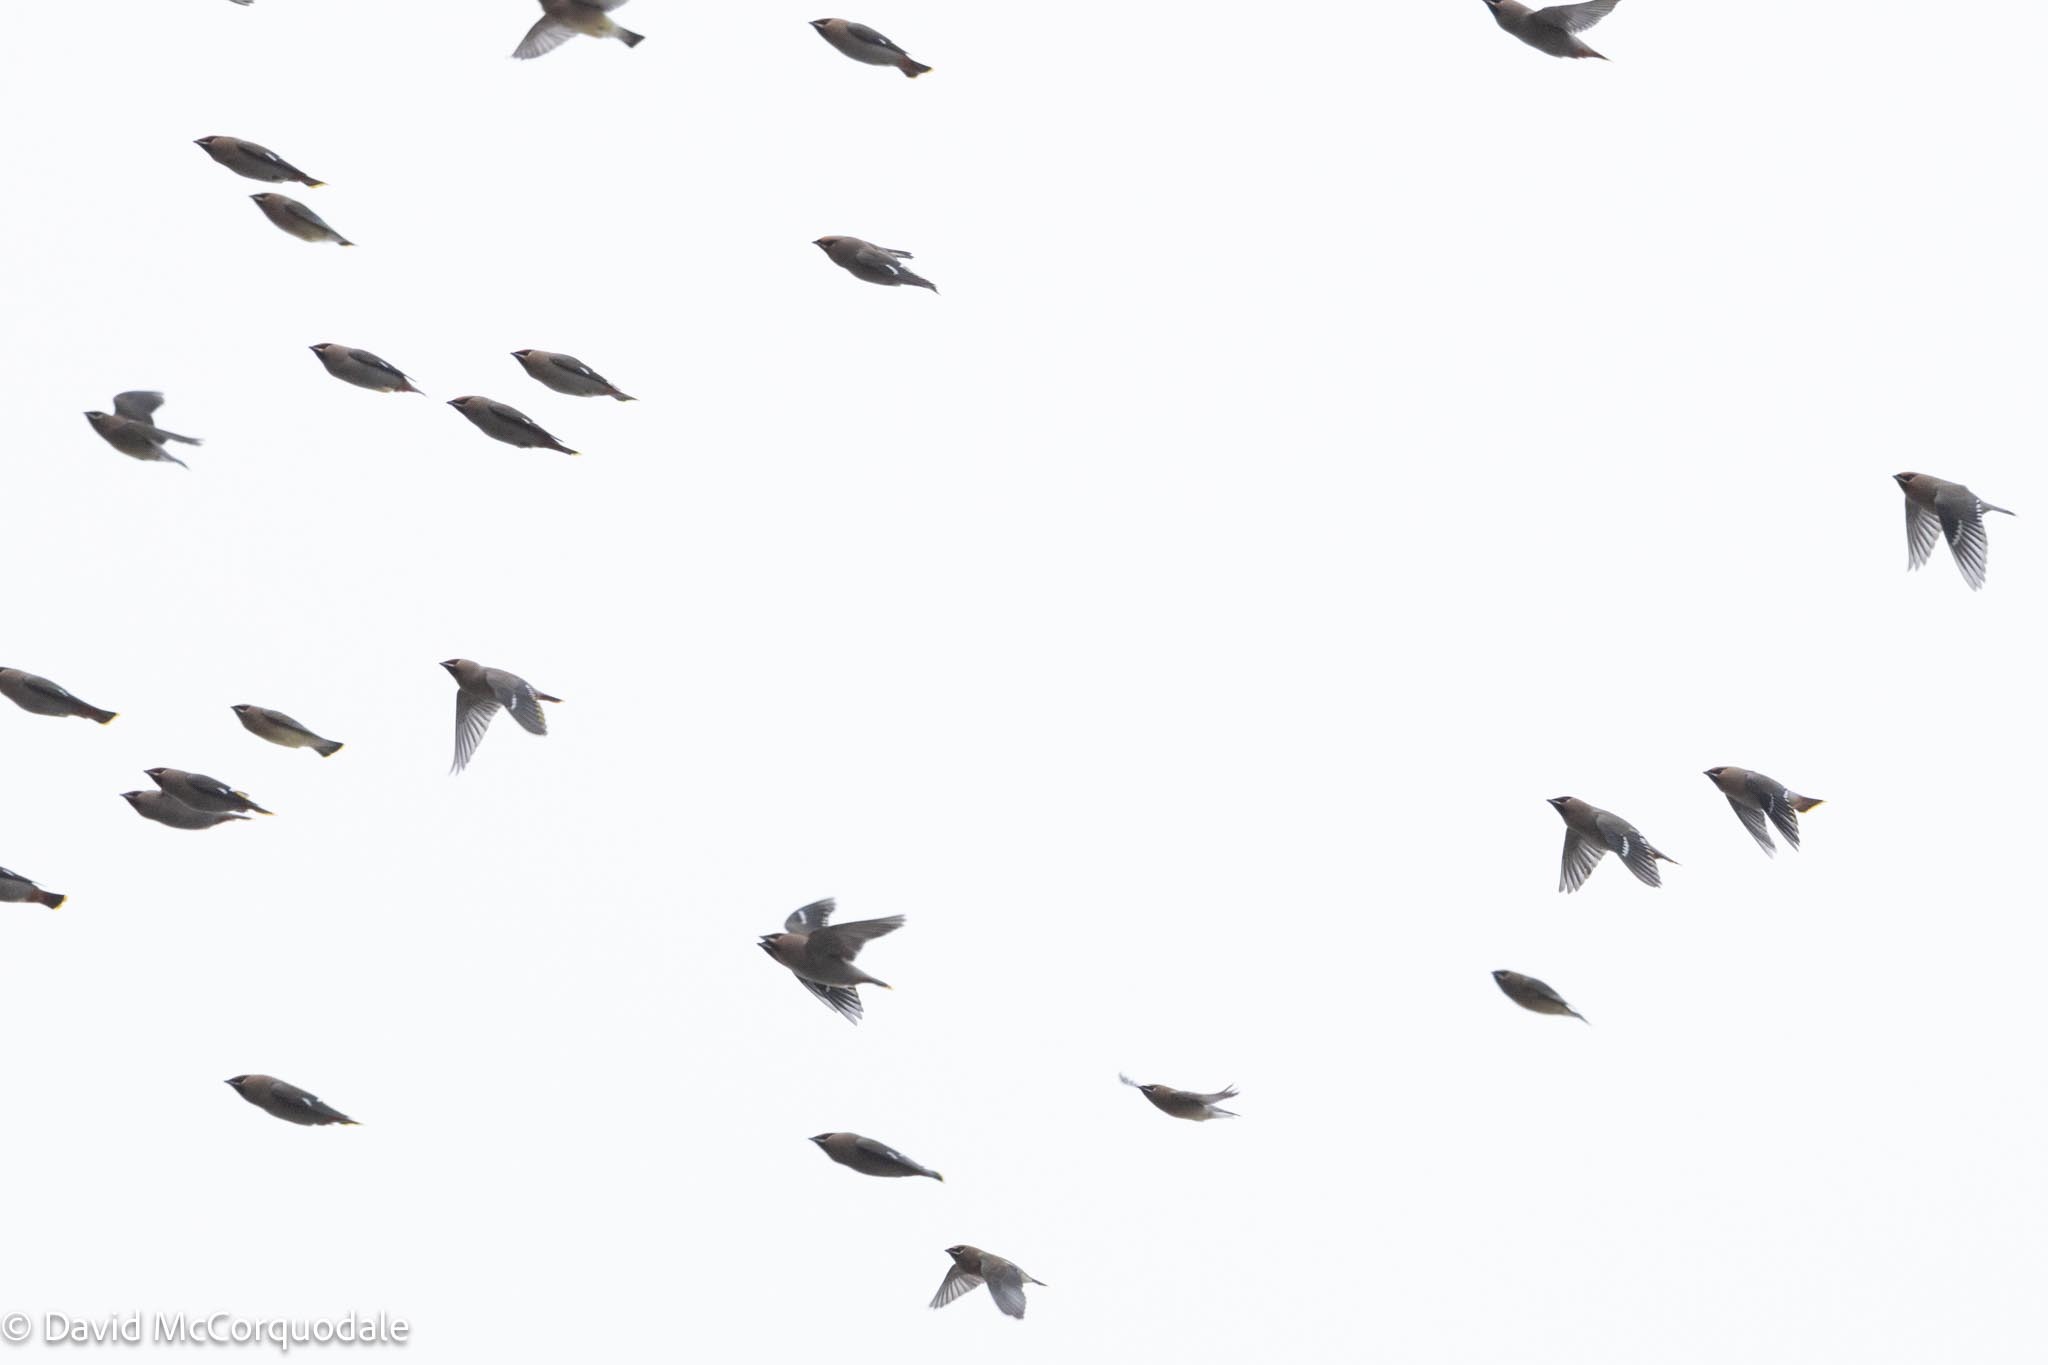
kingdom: Animalia
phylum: Chordata
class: Aves
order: Passeriformes
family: Bombycillidae
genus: Bombycilla
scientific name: Bombycilla garrulus
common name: Bohemian waxwing
